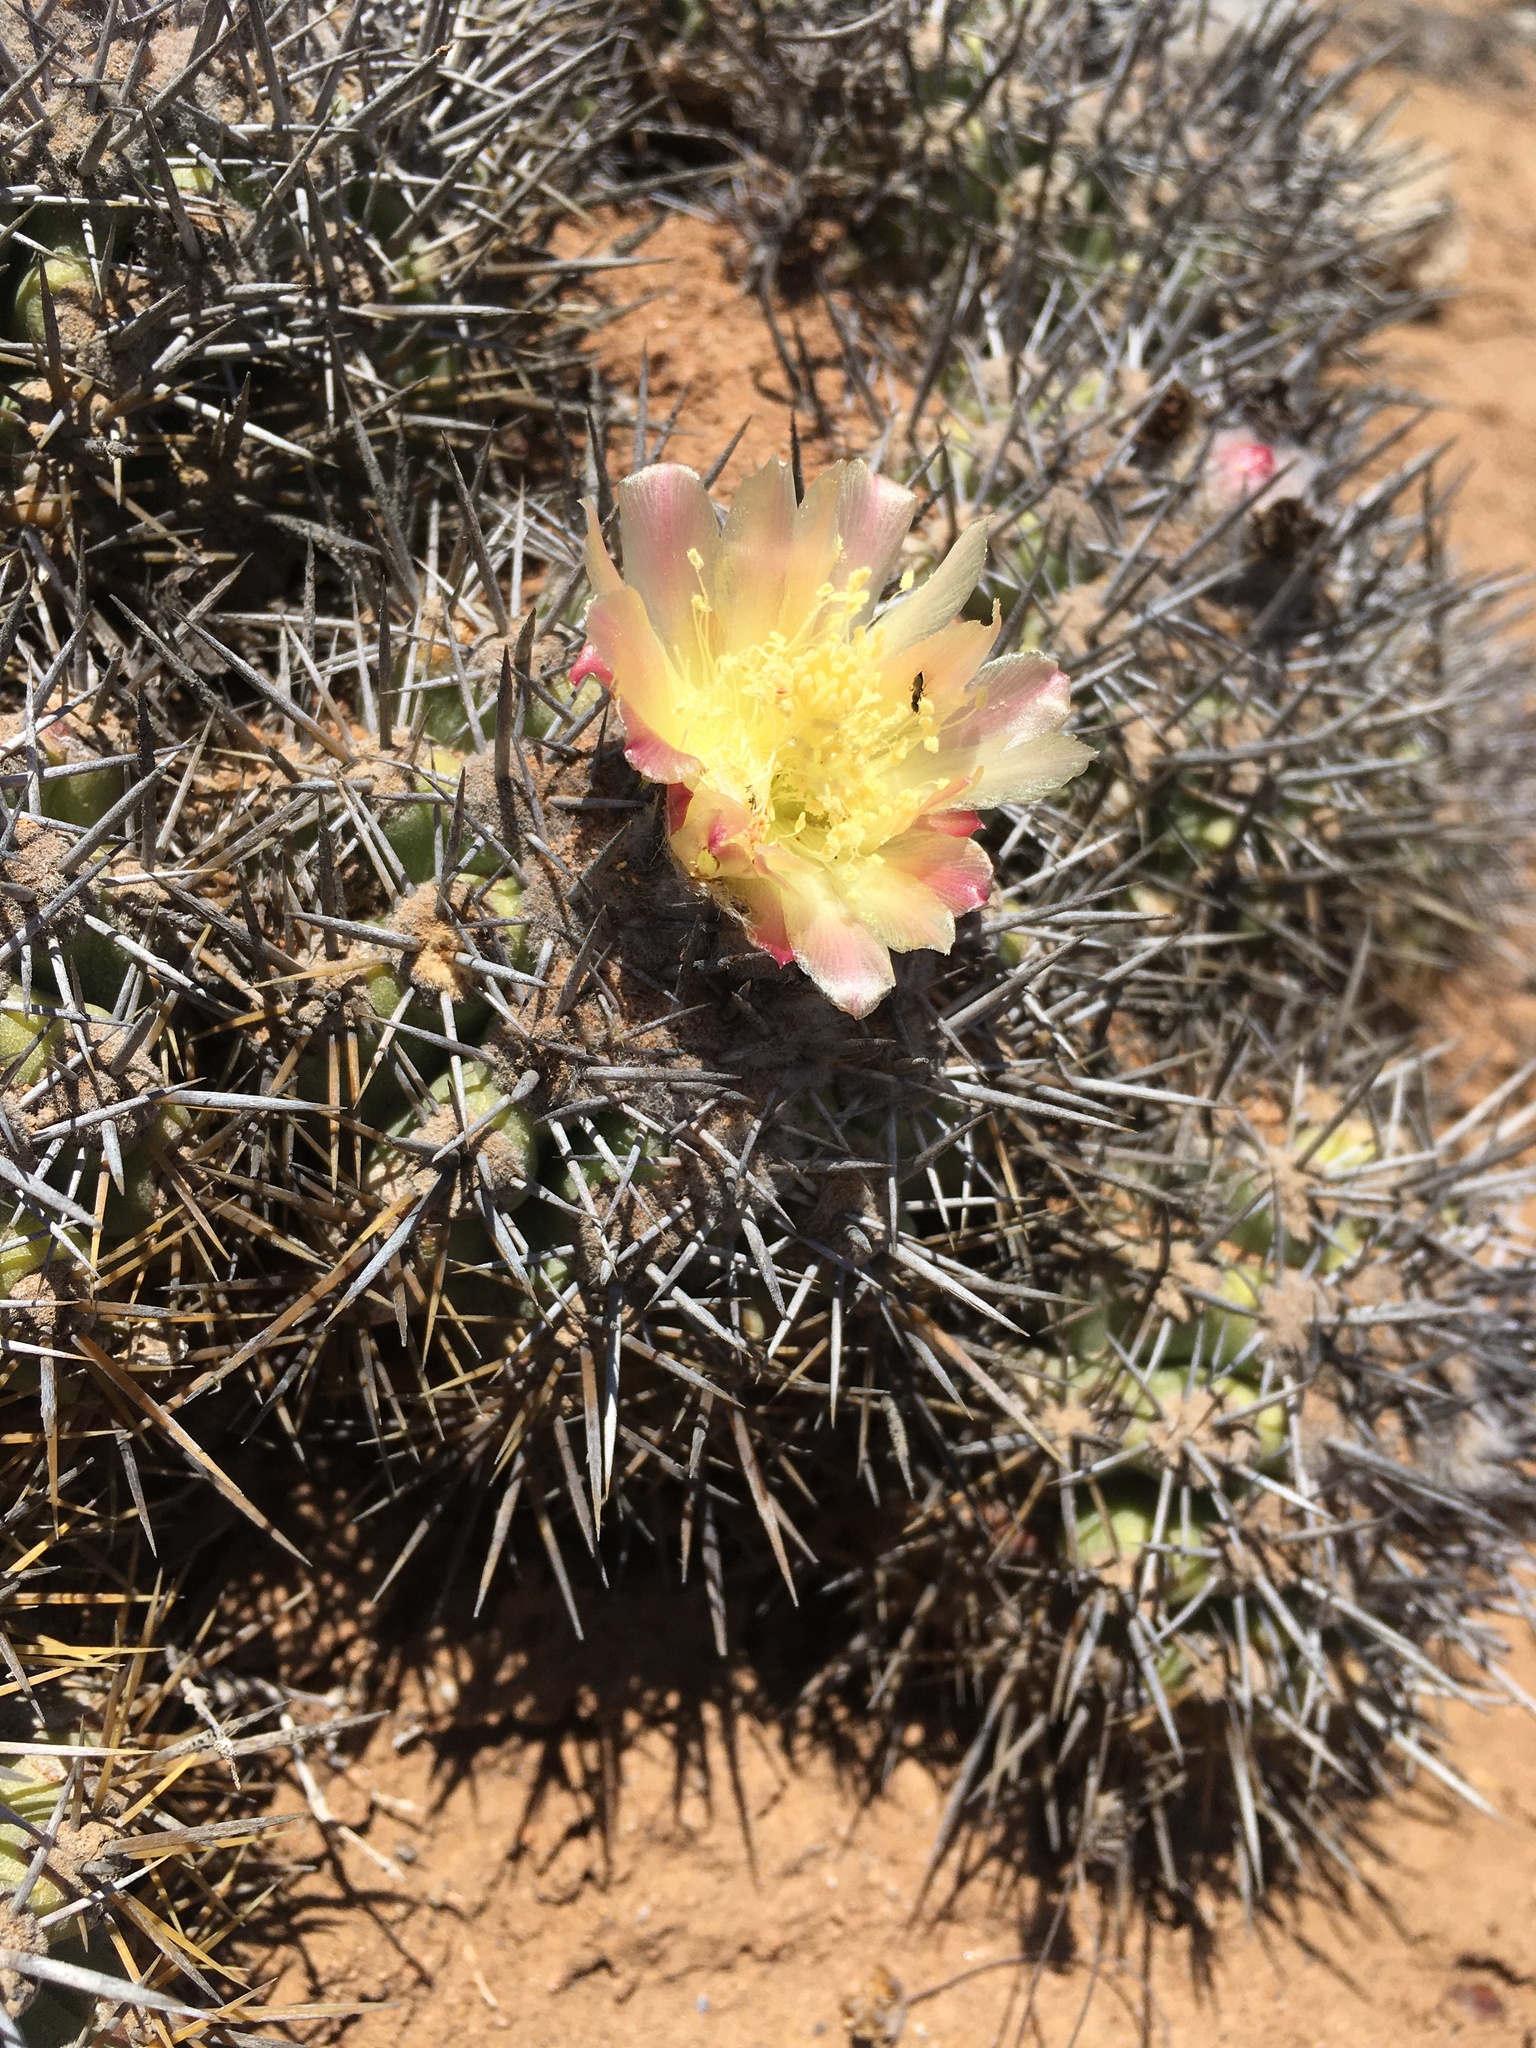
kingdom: Plantae
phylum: Tracheophyta
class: Magnoliopsida
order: Caryophyllales
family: Cactaceae
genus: Copiapoa
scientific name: Copiapoa coquimbana
